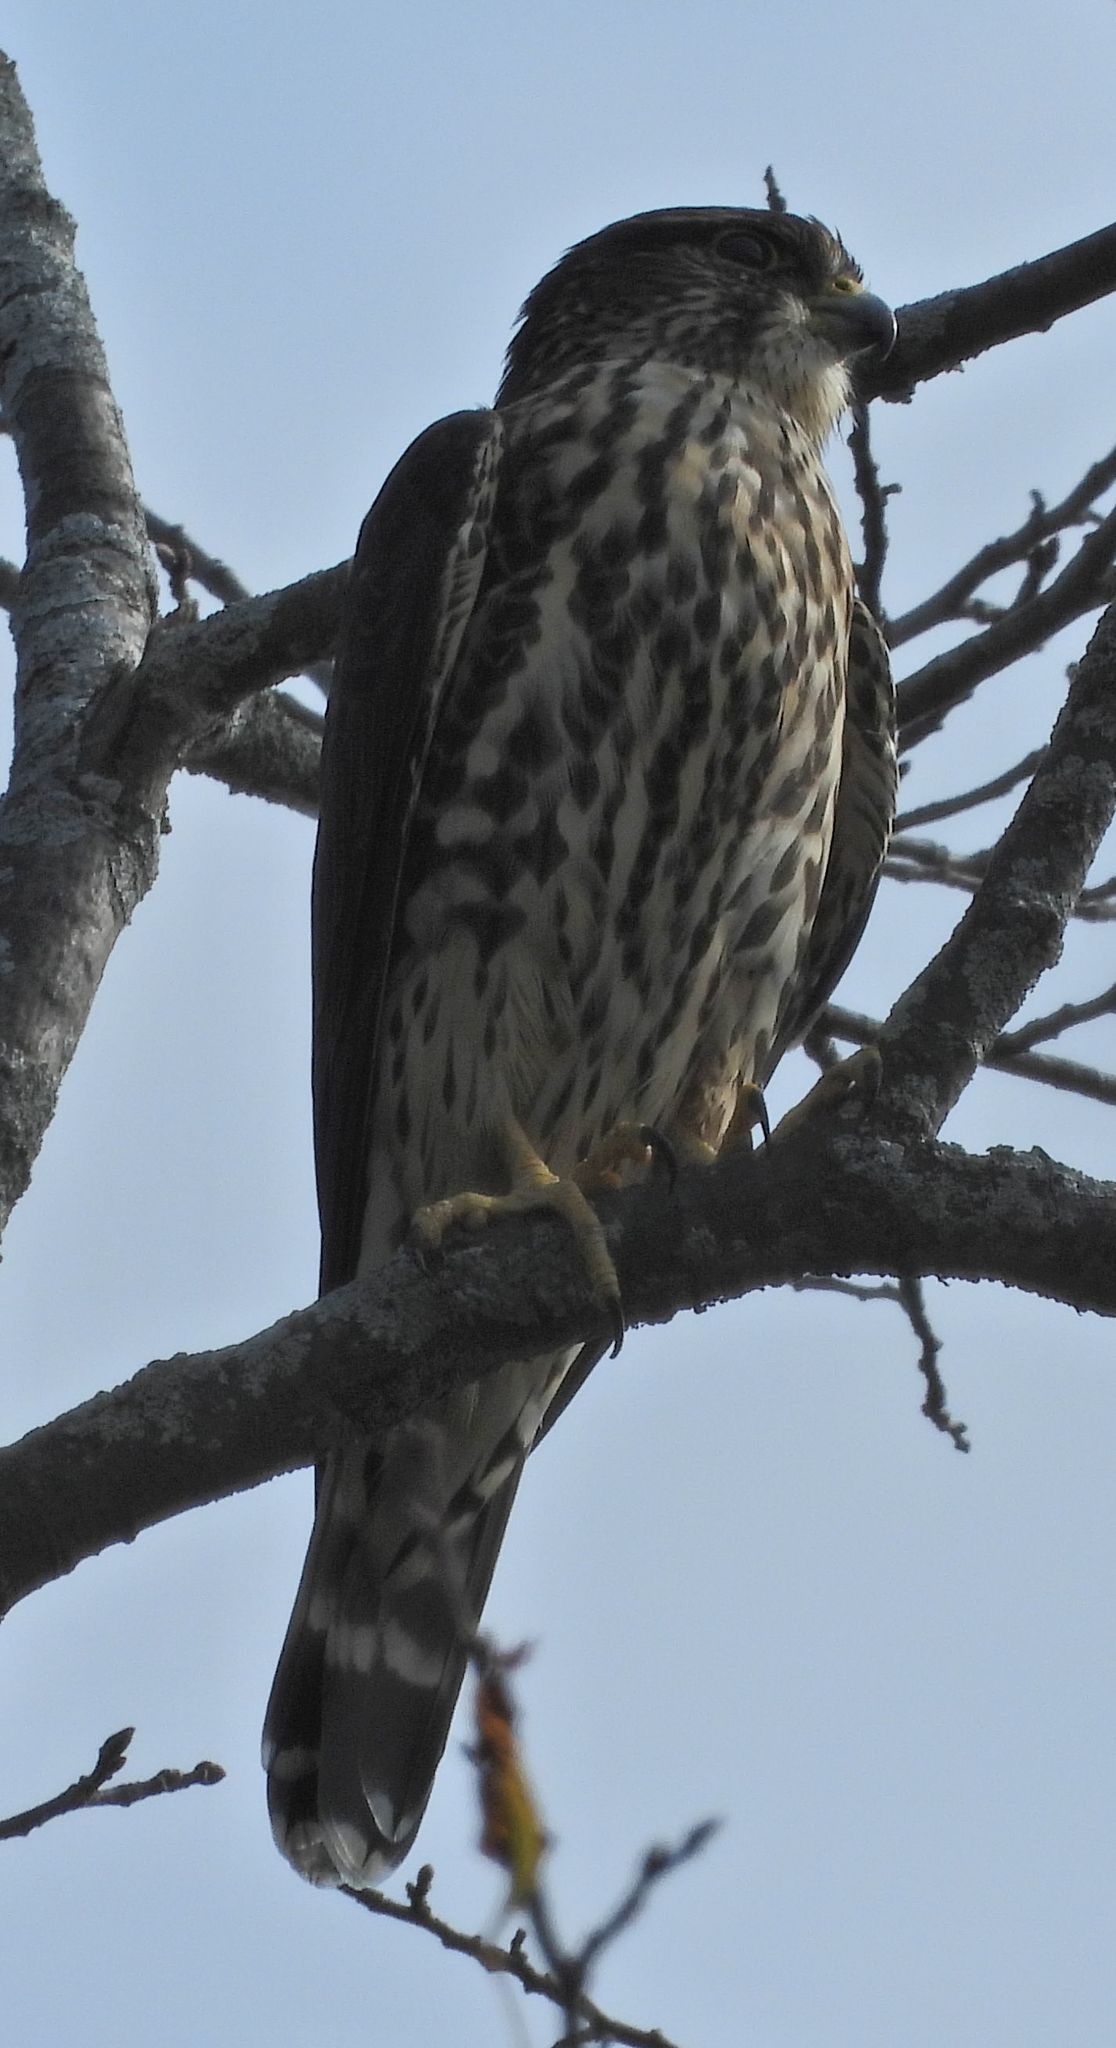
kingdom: Animalia
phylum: Chordata
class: Aves
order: Falconiformes
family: Falconidae
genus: Falco
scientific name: Falco columbarius
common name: Merlin
